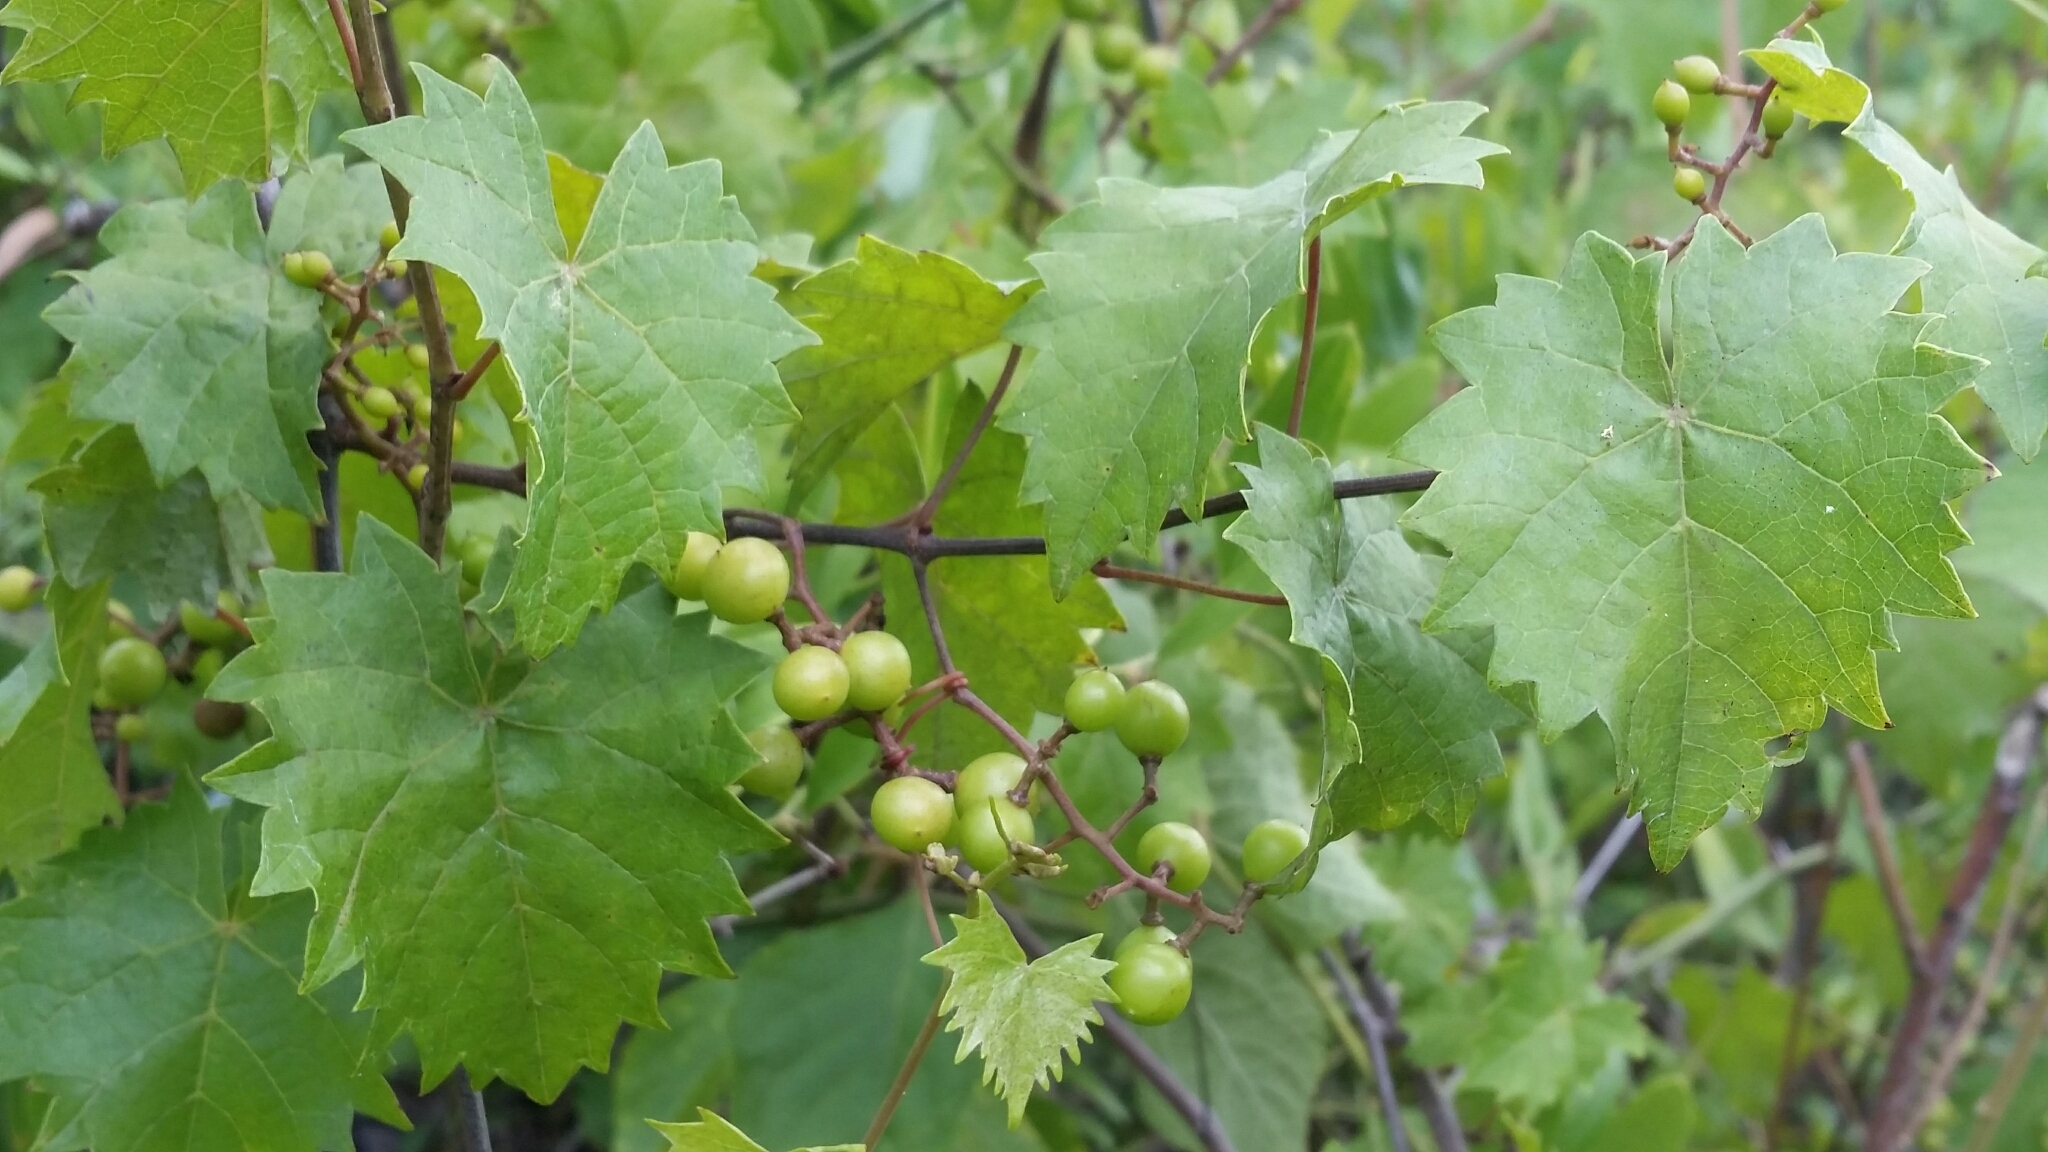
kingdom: Plantae
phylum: Tracheophyta
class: Magnoliopsida
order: Vitales
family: Vitaceae
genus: Vitis
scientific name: Vitis rotundifolia
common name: Muscadine grape
